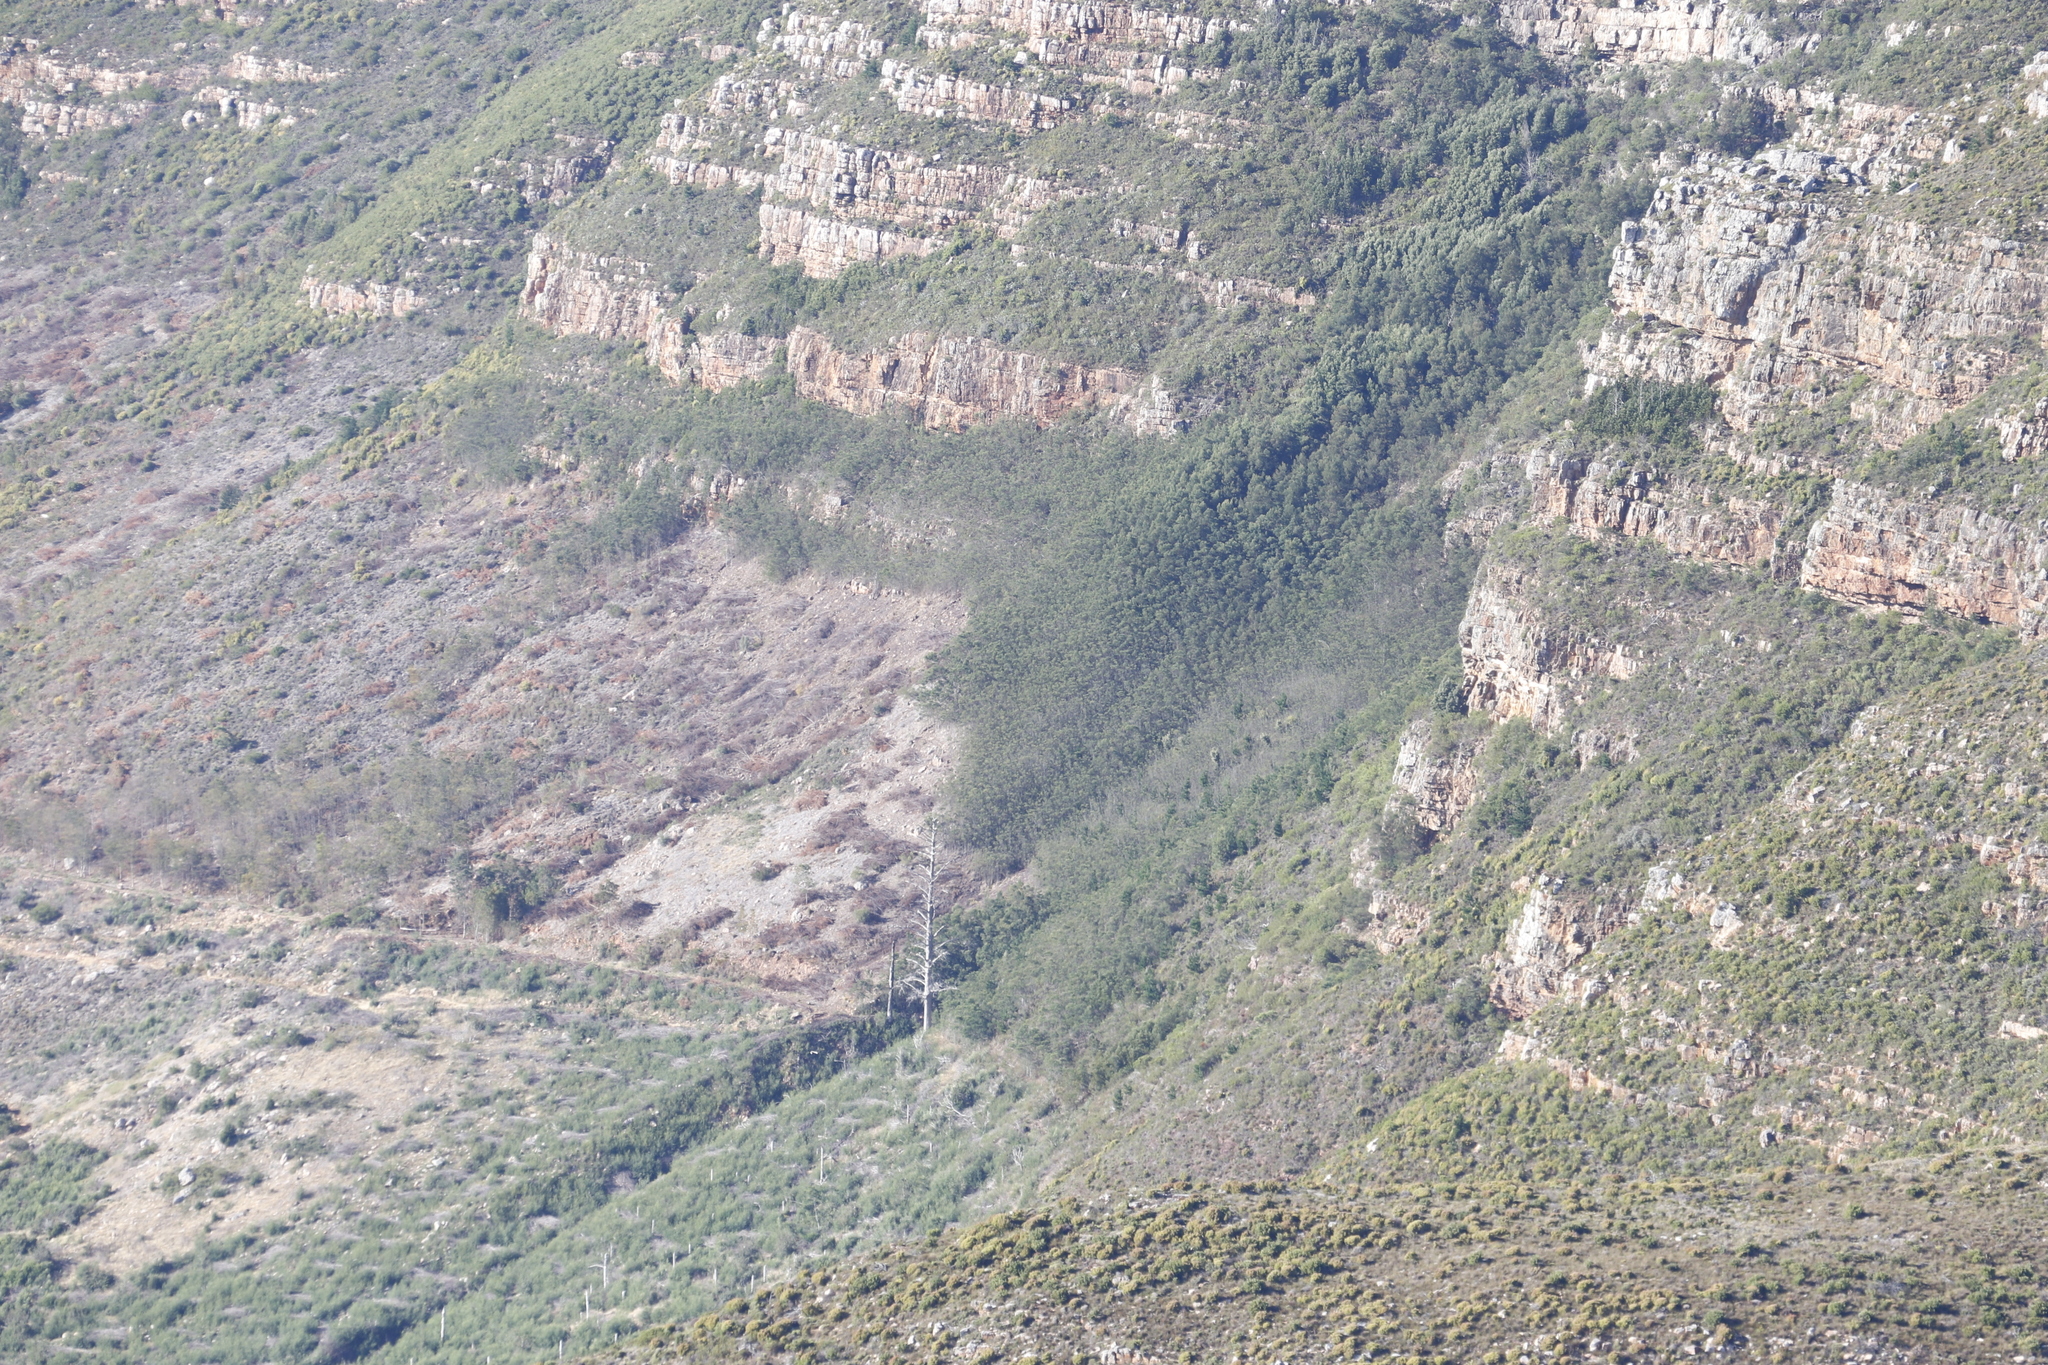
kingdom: Plantae
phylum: Tracheophyta
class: Magnoliopsida
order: Fabales
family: Fabaceae
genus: Paraserianthes
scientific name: Paraserianthes lophantha
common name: Plume albizia
